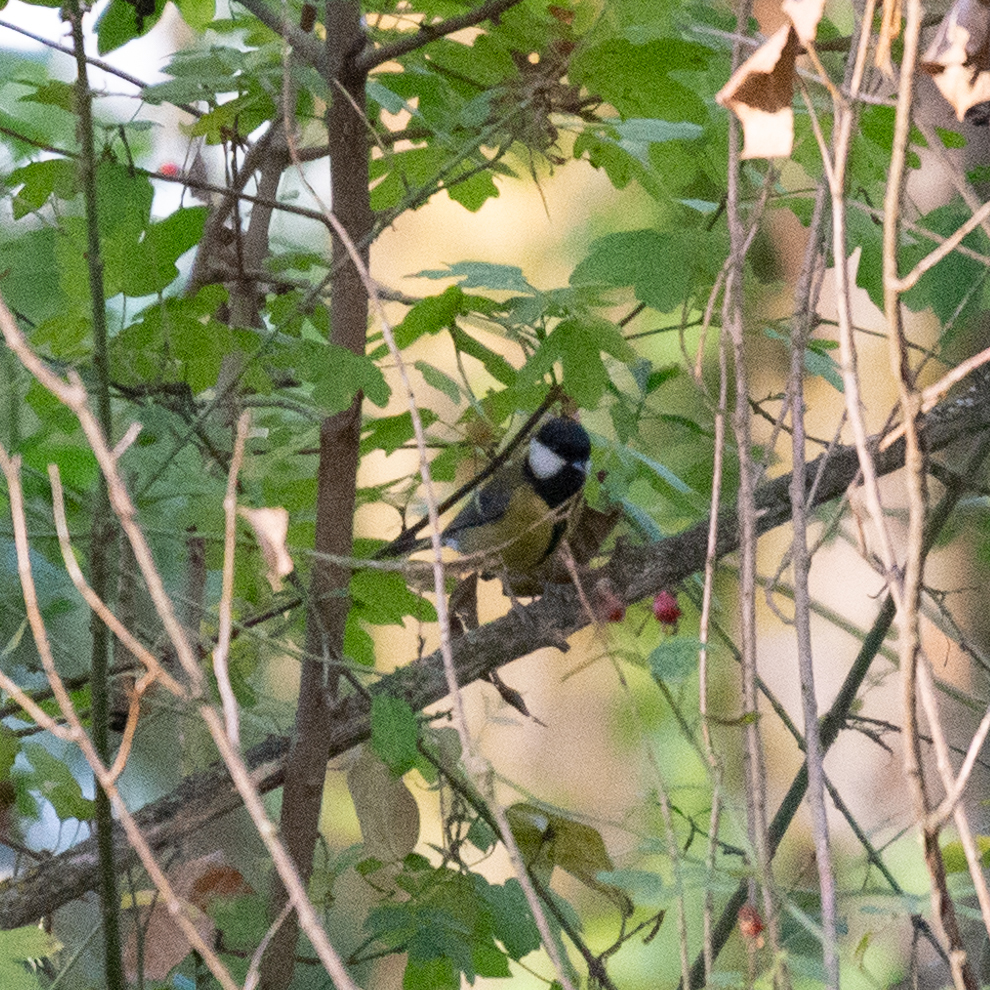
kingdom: Animalia
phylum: Chordata
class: Aves
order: Passeriformes
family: Paridae
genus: Parus
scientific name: Parus major
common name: Great tit
